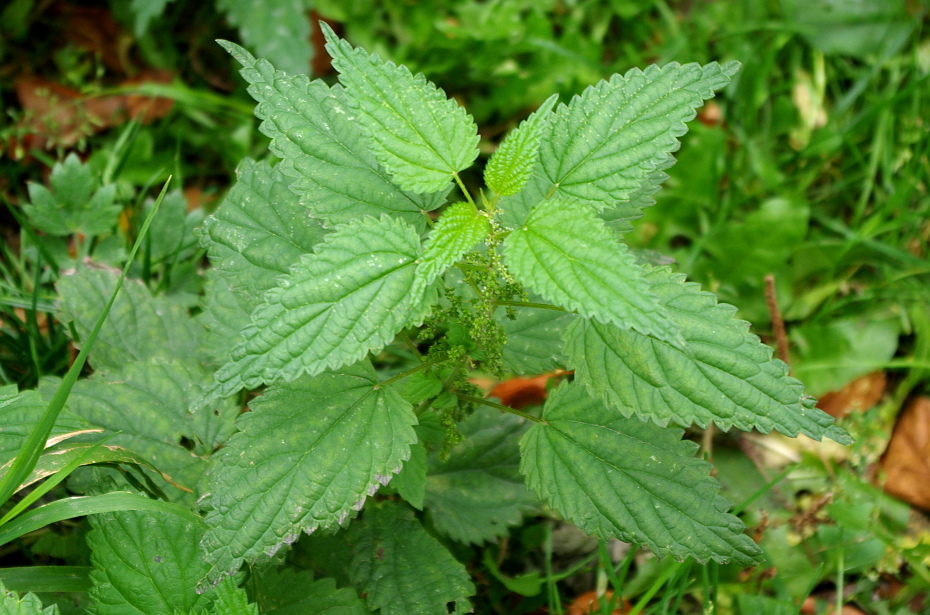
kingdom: Plantae
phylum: Tracheophyta
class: Magnoliopsida
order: Rosales
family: Urticaceae
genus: Urtica
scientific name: Urtica dioica
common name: Common nettle
